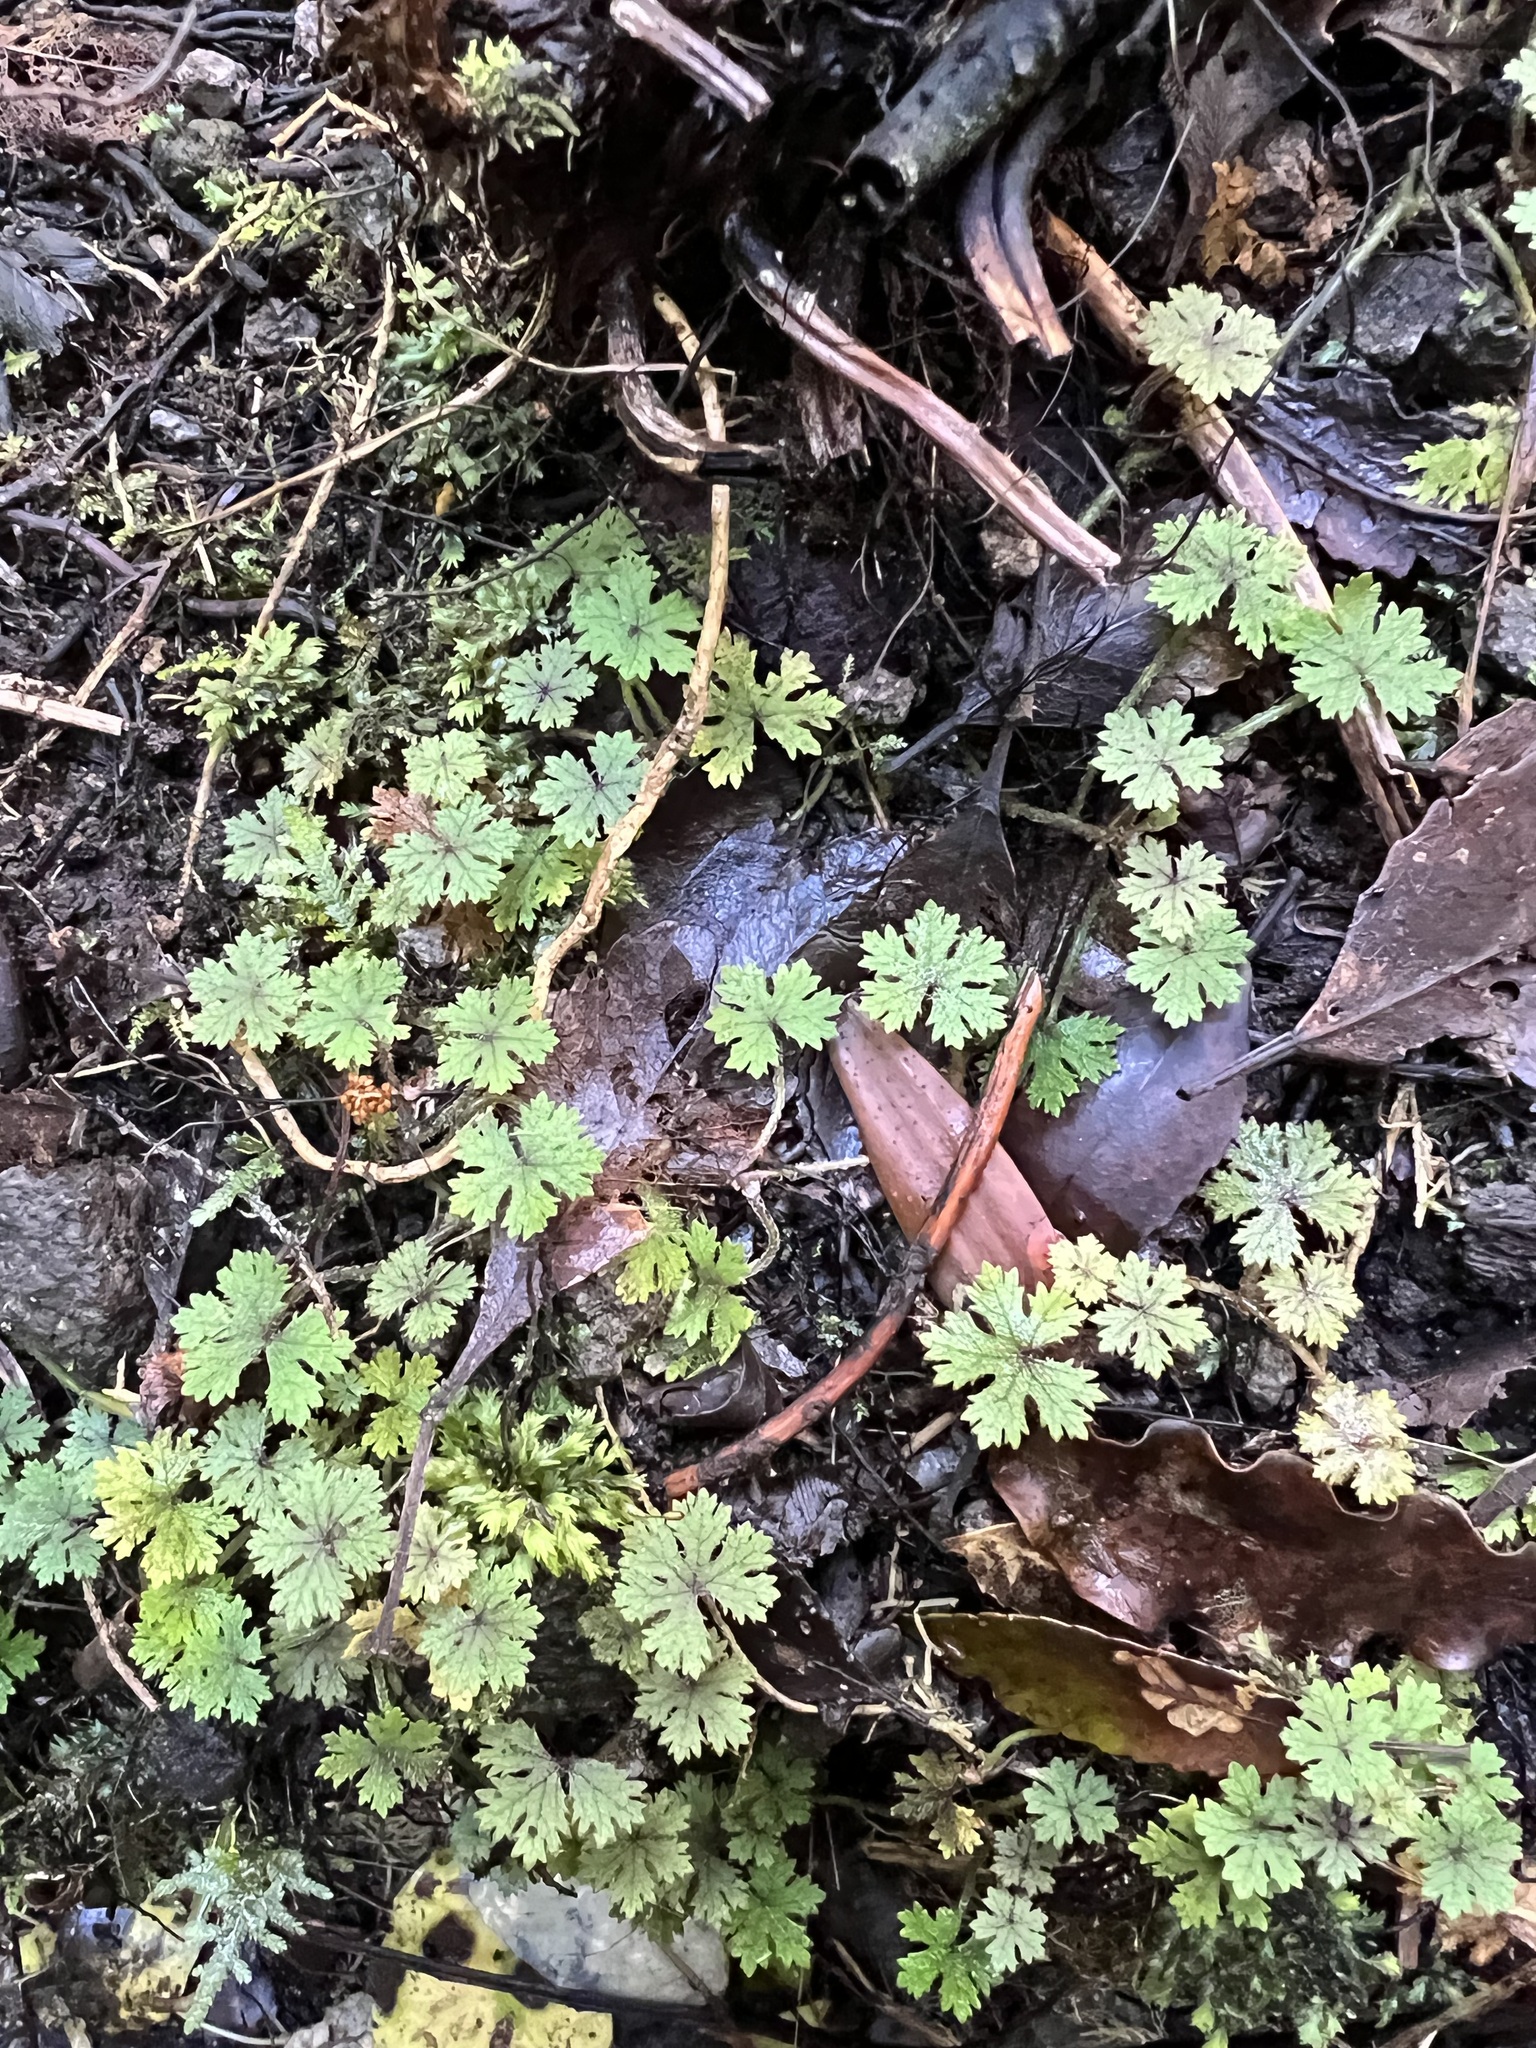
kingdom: Plantae
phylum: Tracheophyta
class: Magnoliopsida
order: Apiales
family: Araliaceae
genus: Hydrocotyle
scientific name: Hydrocotyle dissecta
